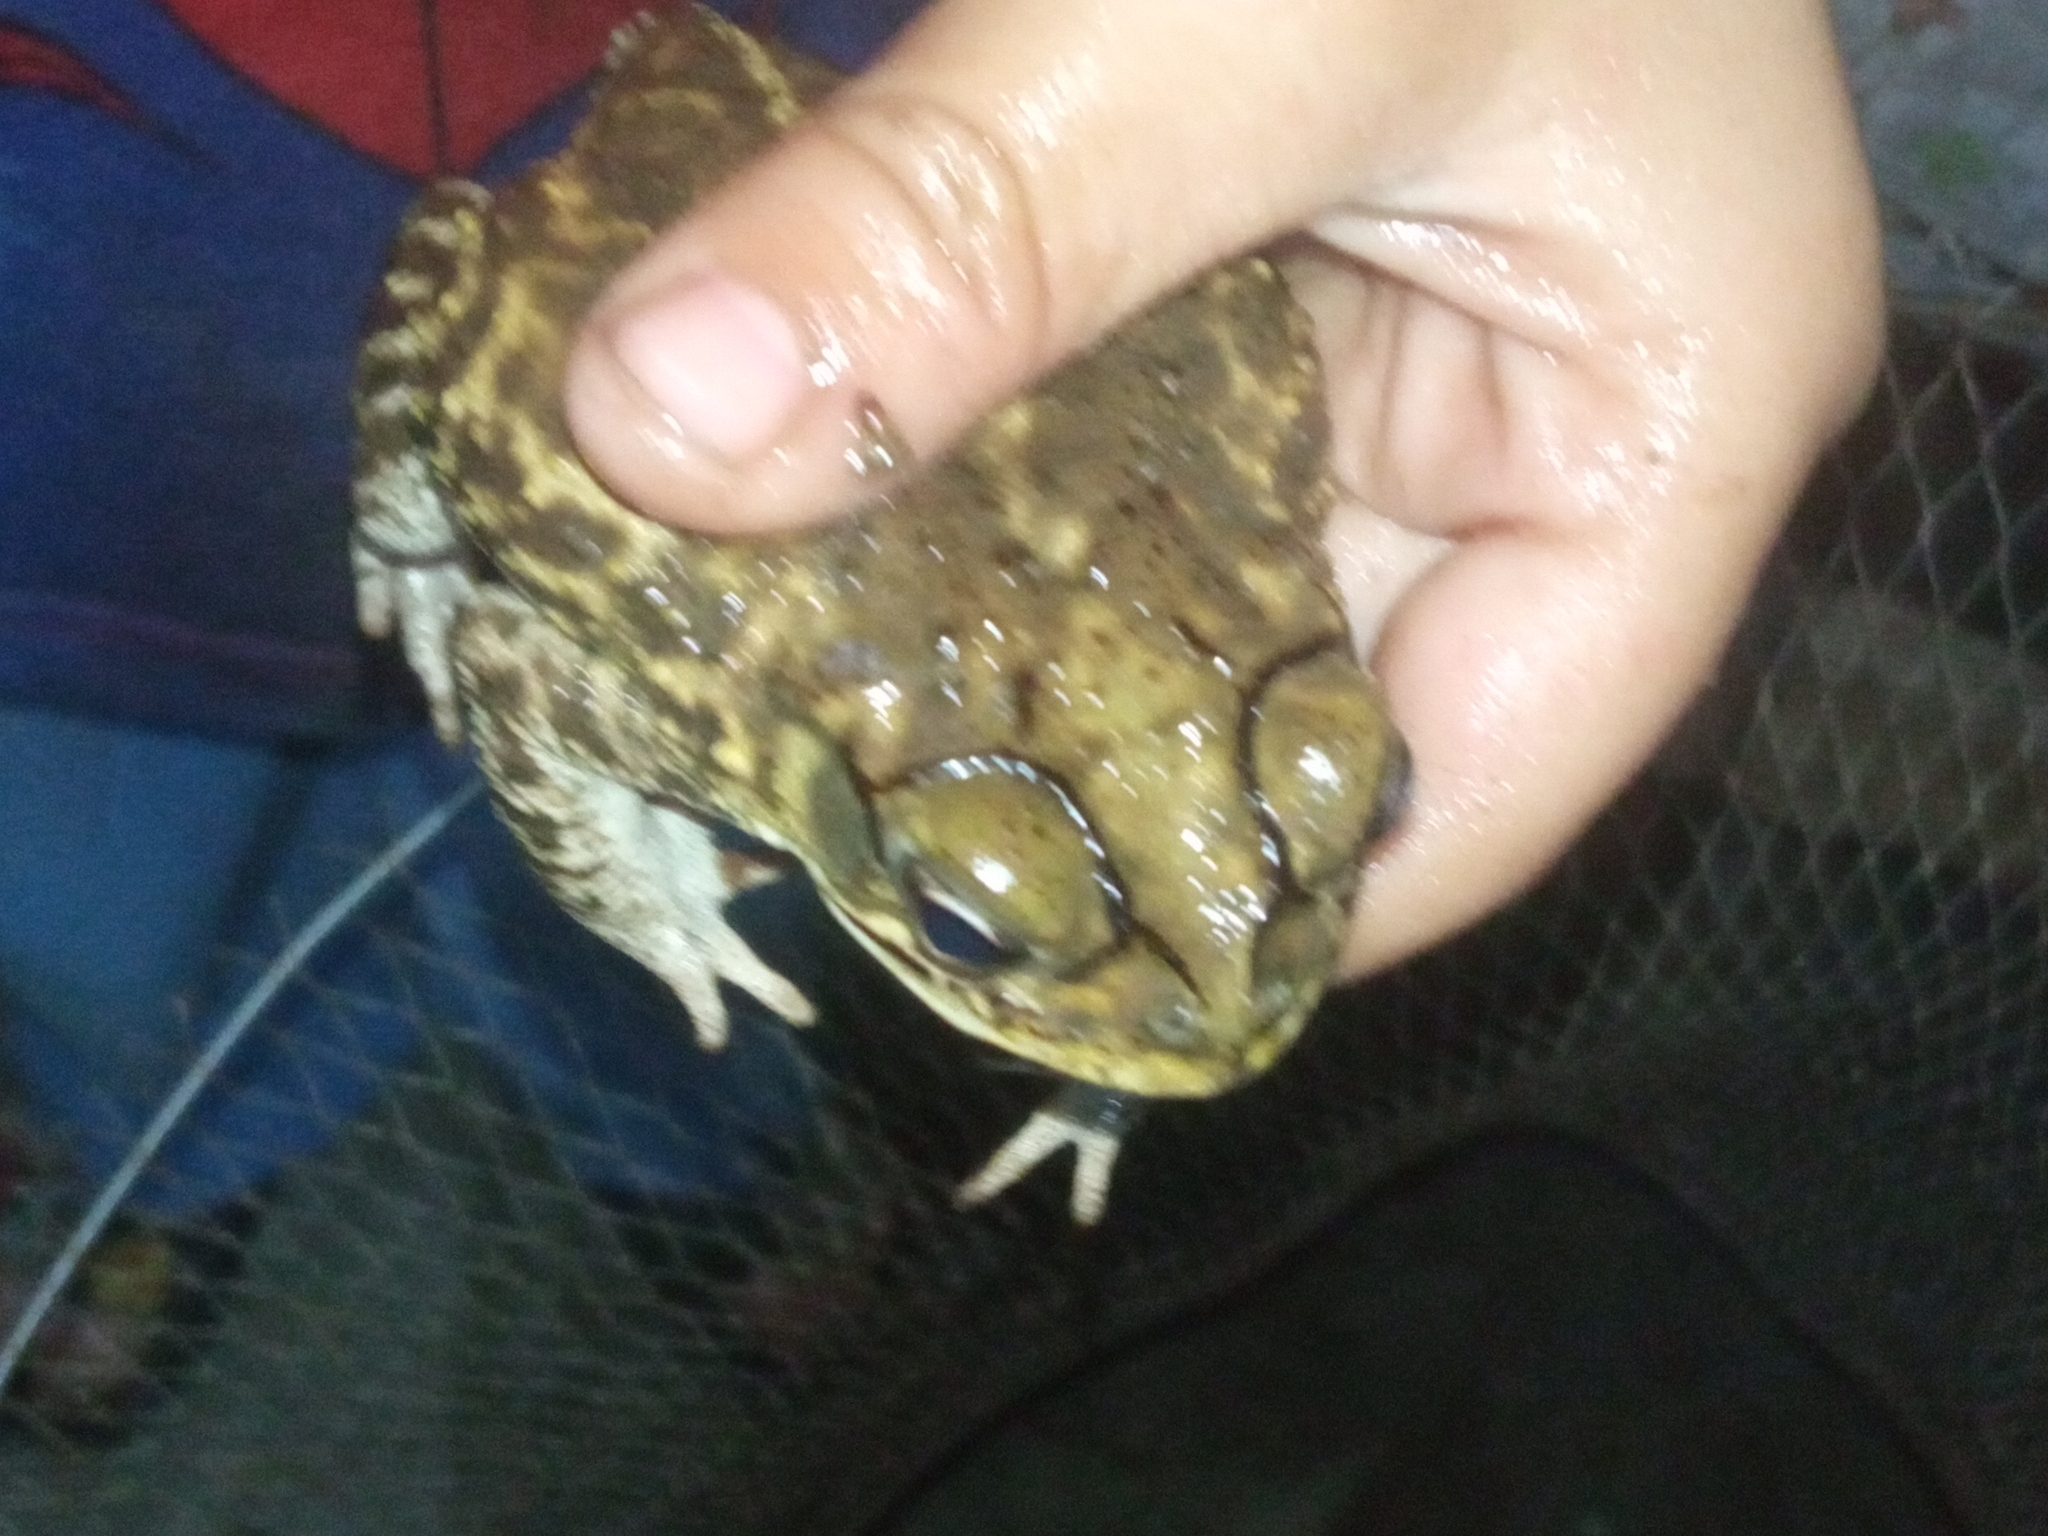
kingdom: Animalia
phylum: Chordata
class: Amphibia
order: Anura
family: Bufonidae
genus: Incilius
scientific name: Incilius mazatlanensis
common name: Sinaloa toad
